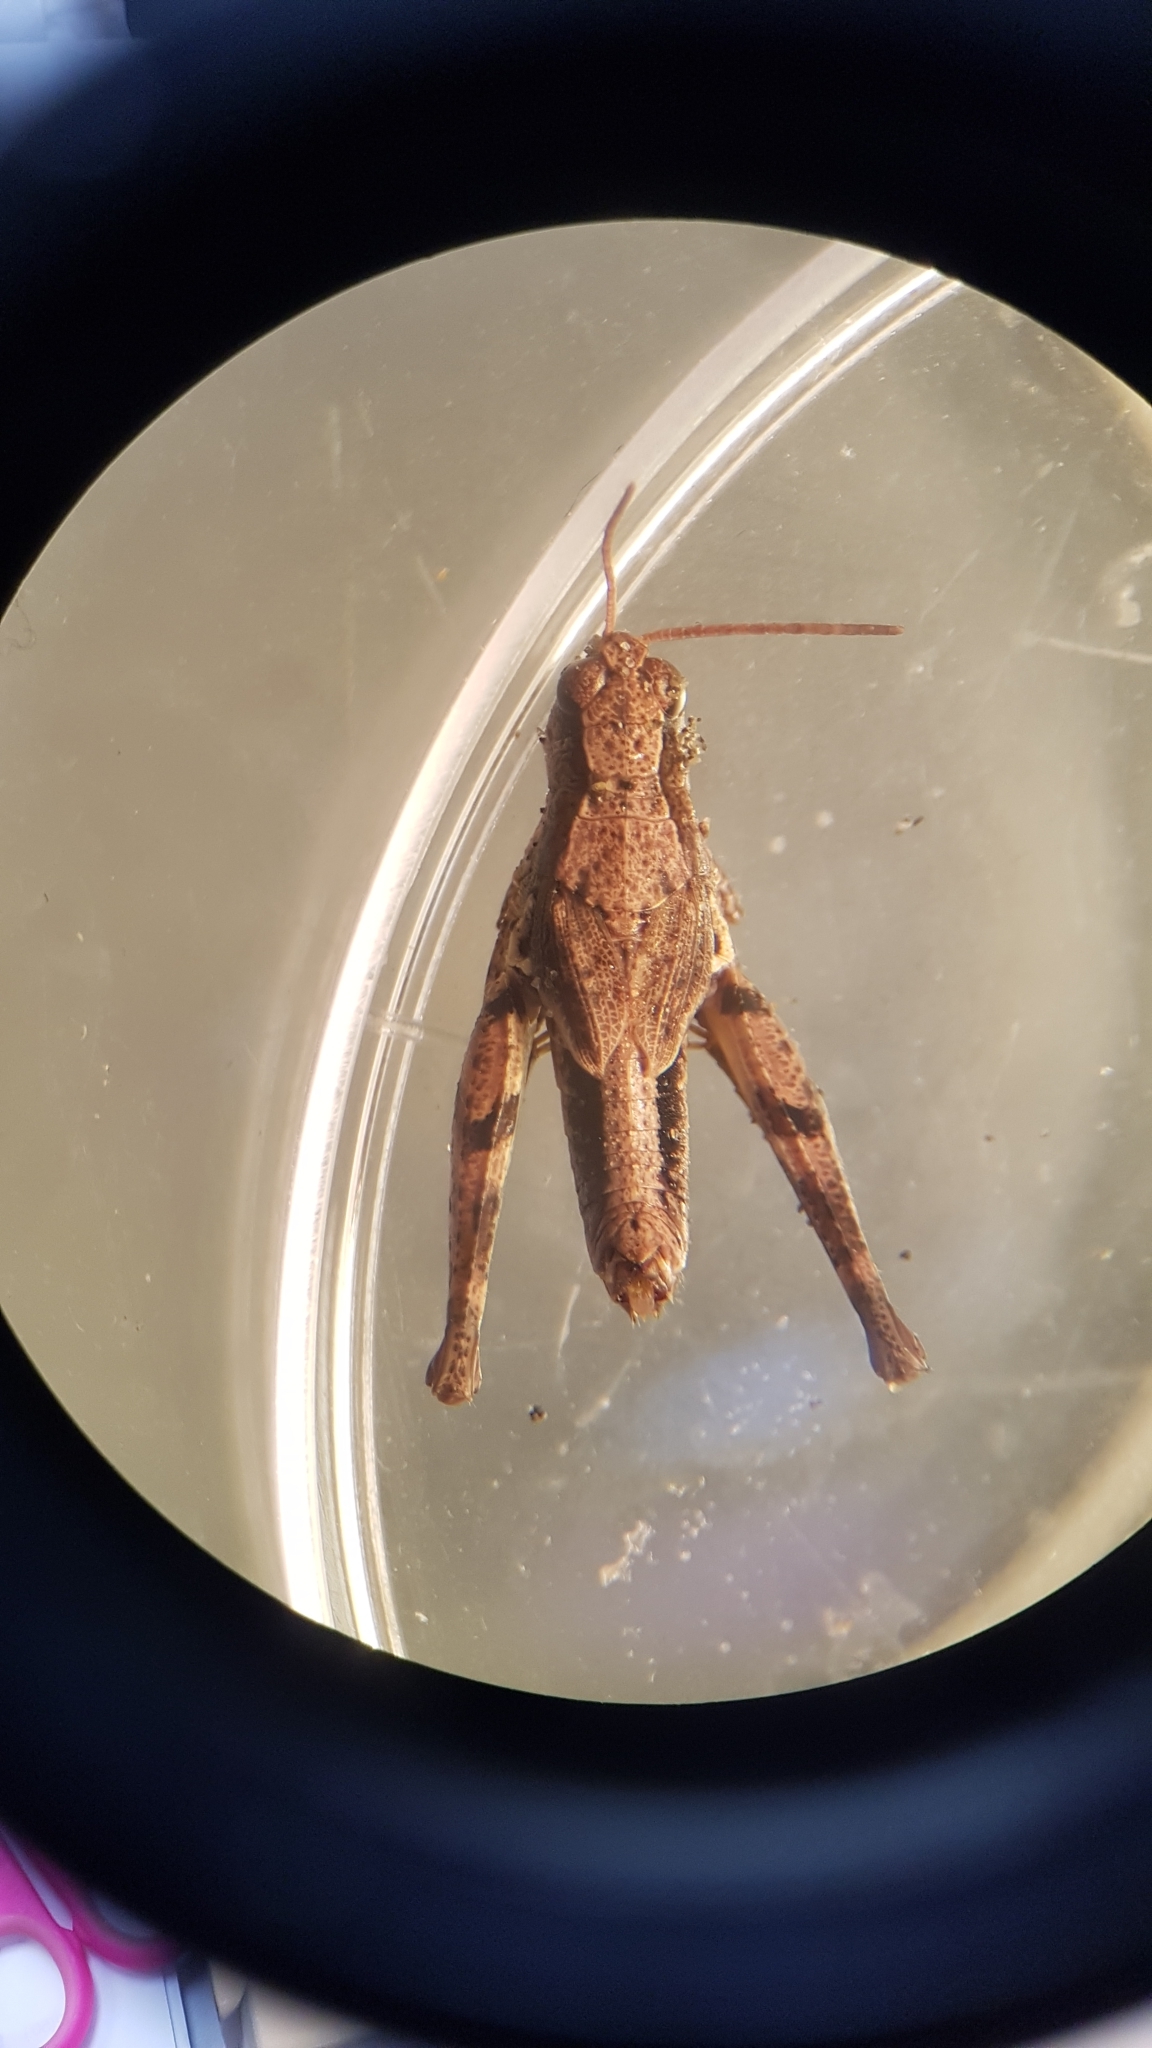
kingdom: Animalia
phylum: Arthropoda
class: Insecta
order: Orthoptera
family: Acrididae
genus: Phaulacridium
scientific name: Phaulacridium marginale
